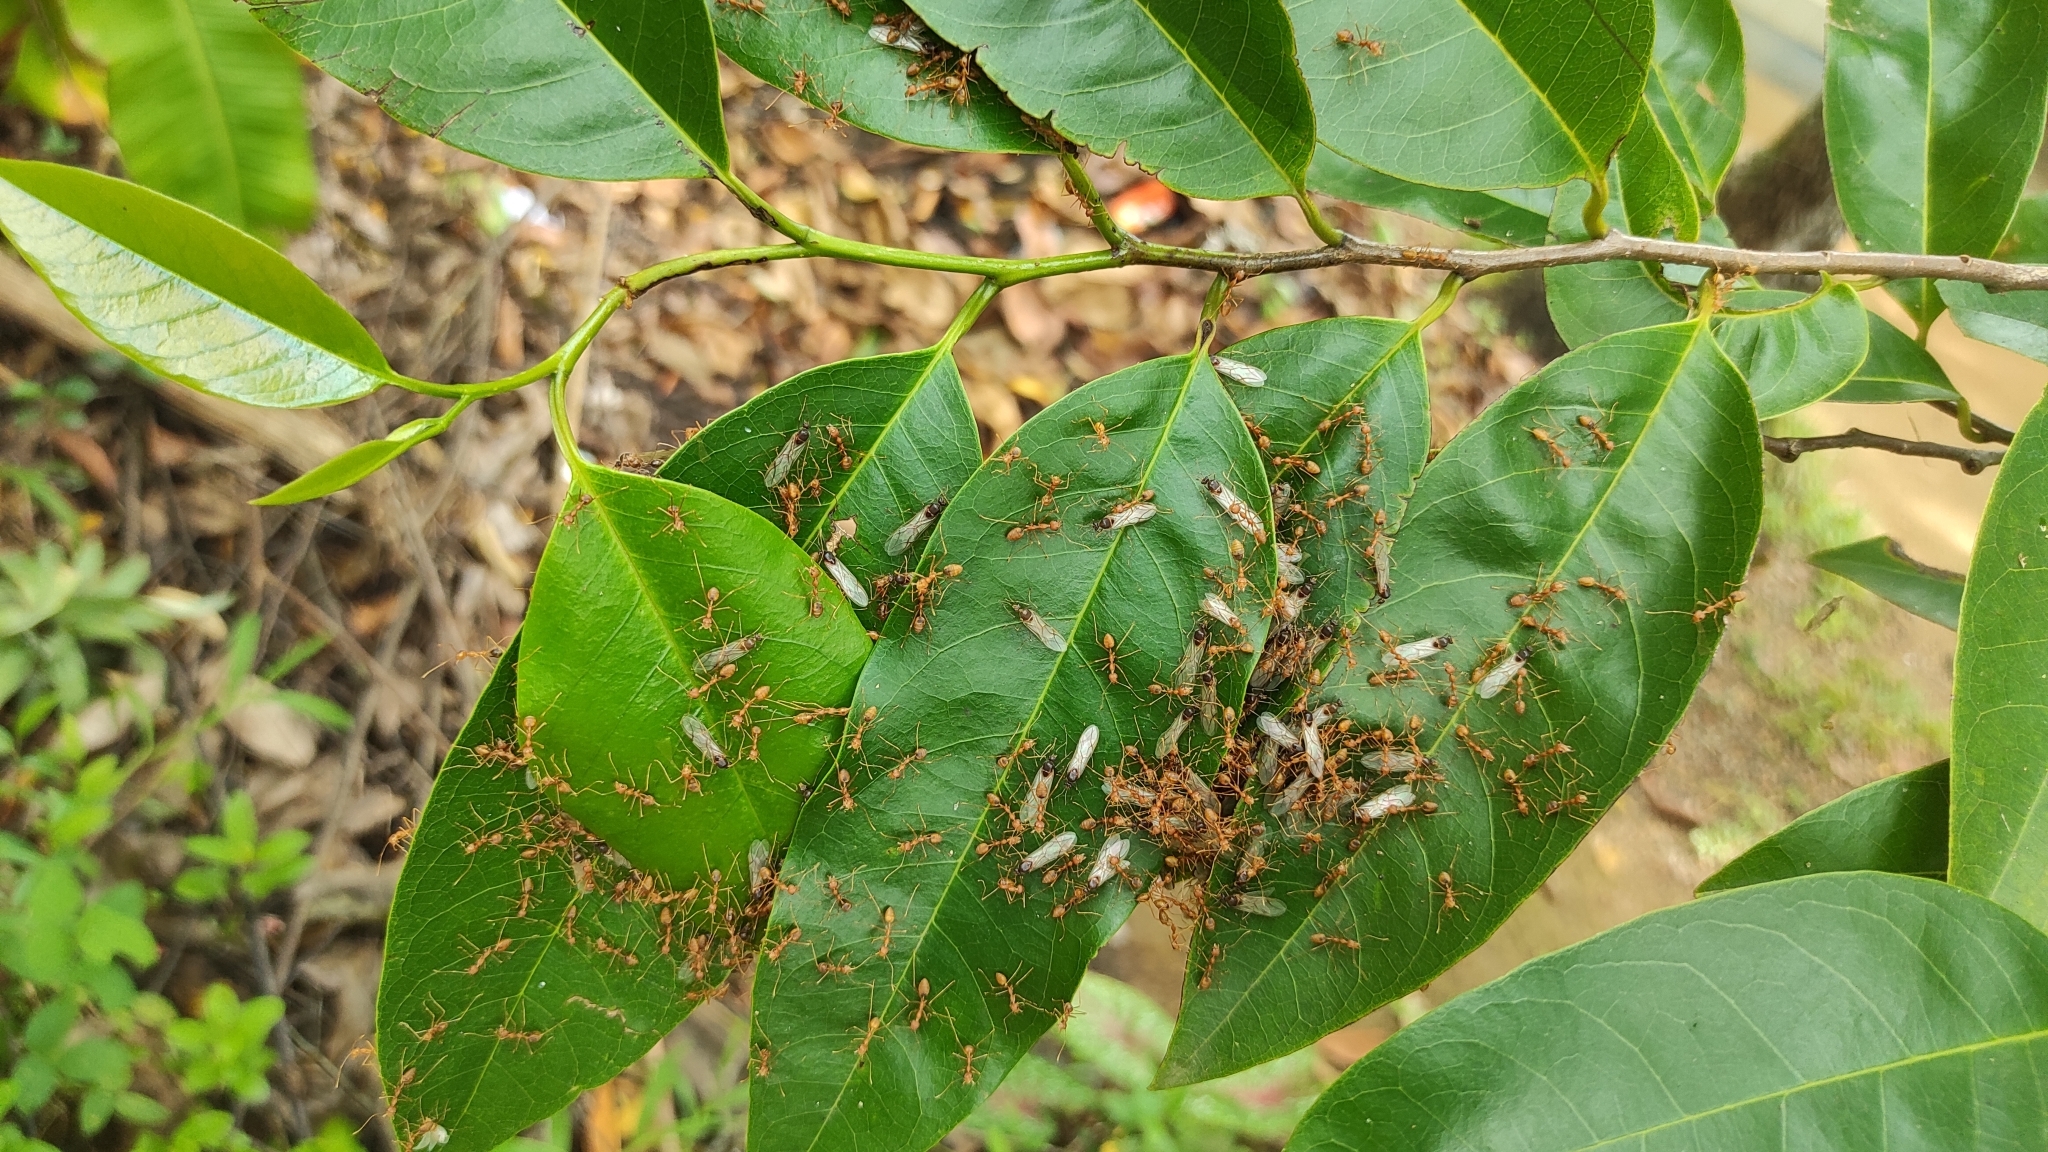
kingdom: Animalia
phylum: Arthropoda
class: Insecta
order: Hymenoptera
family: Formicidae
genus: Oecophylla
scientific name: Oecophylla smaragdina
